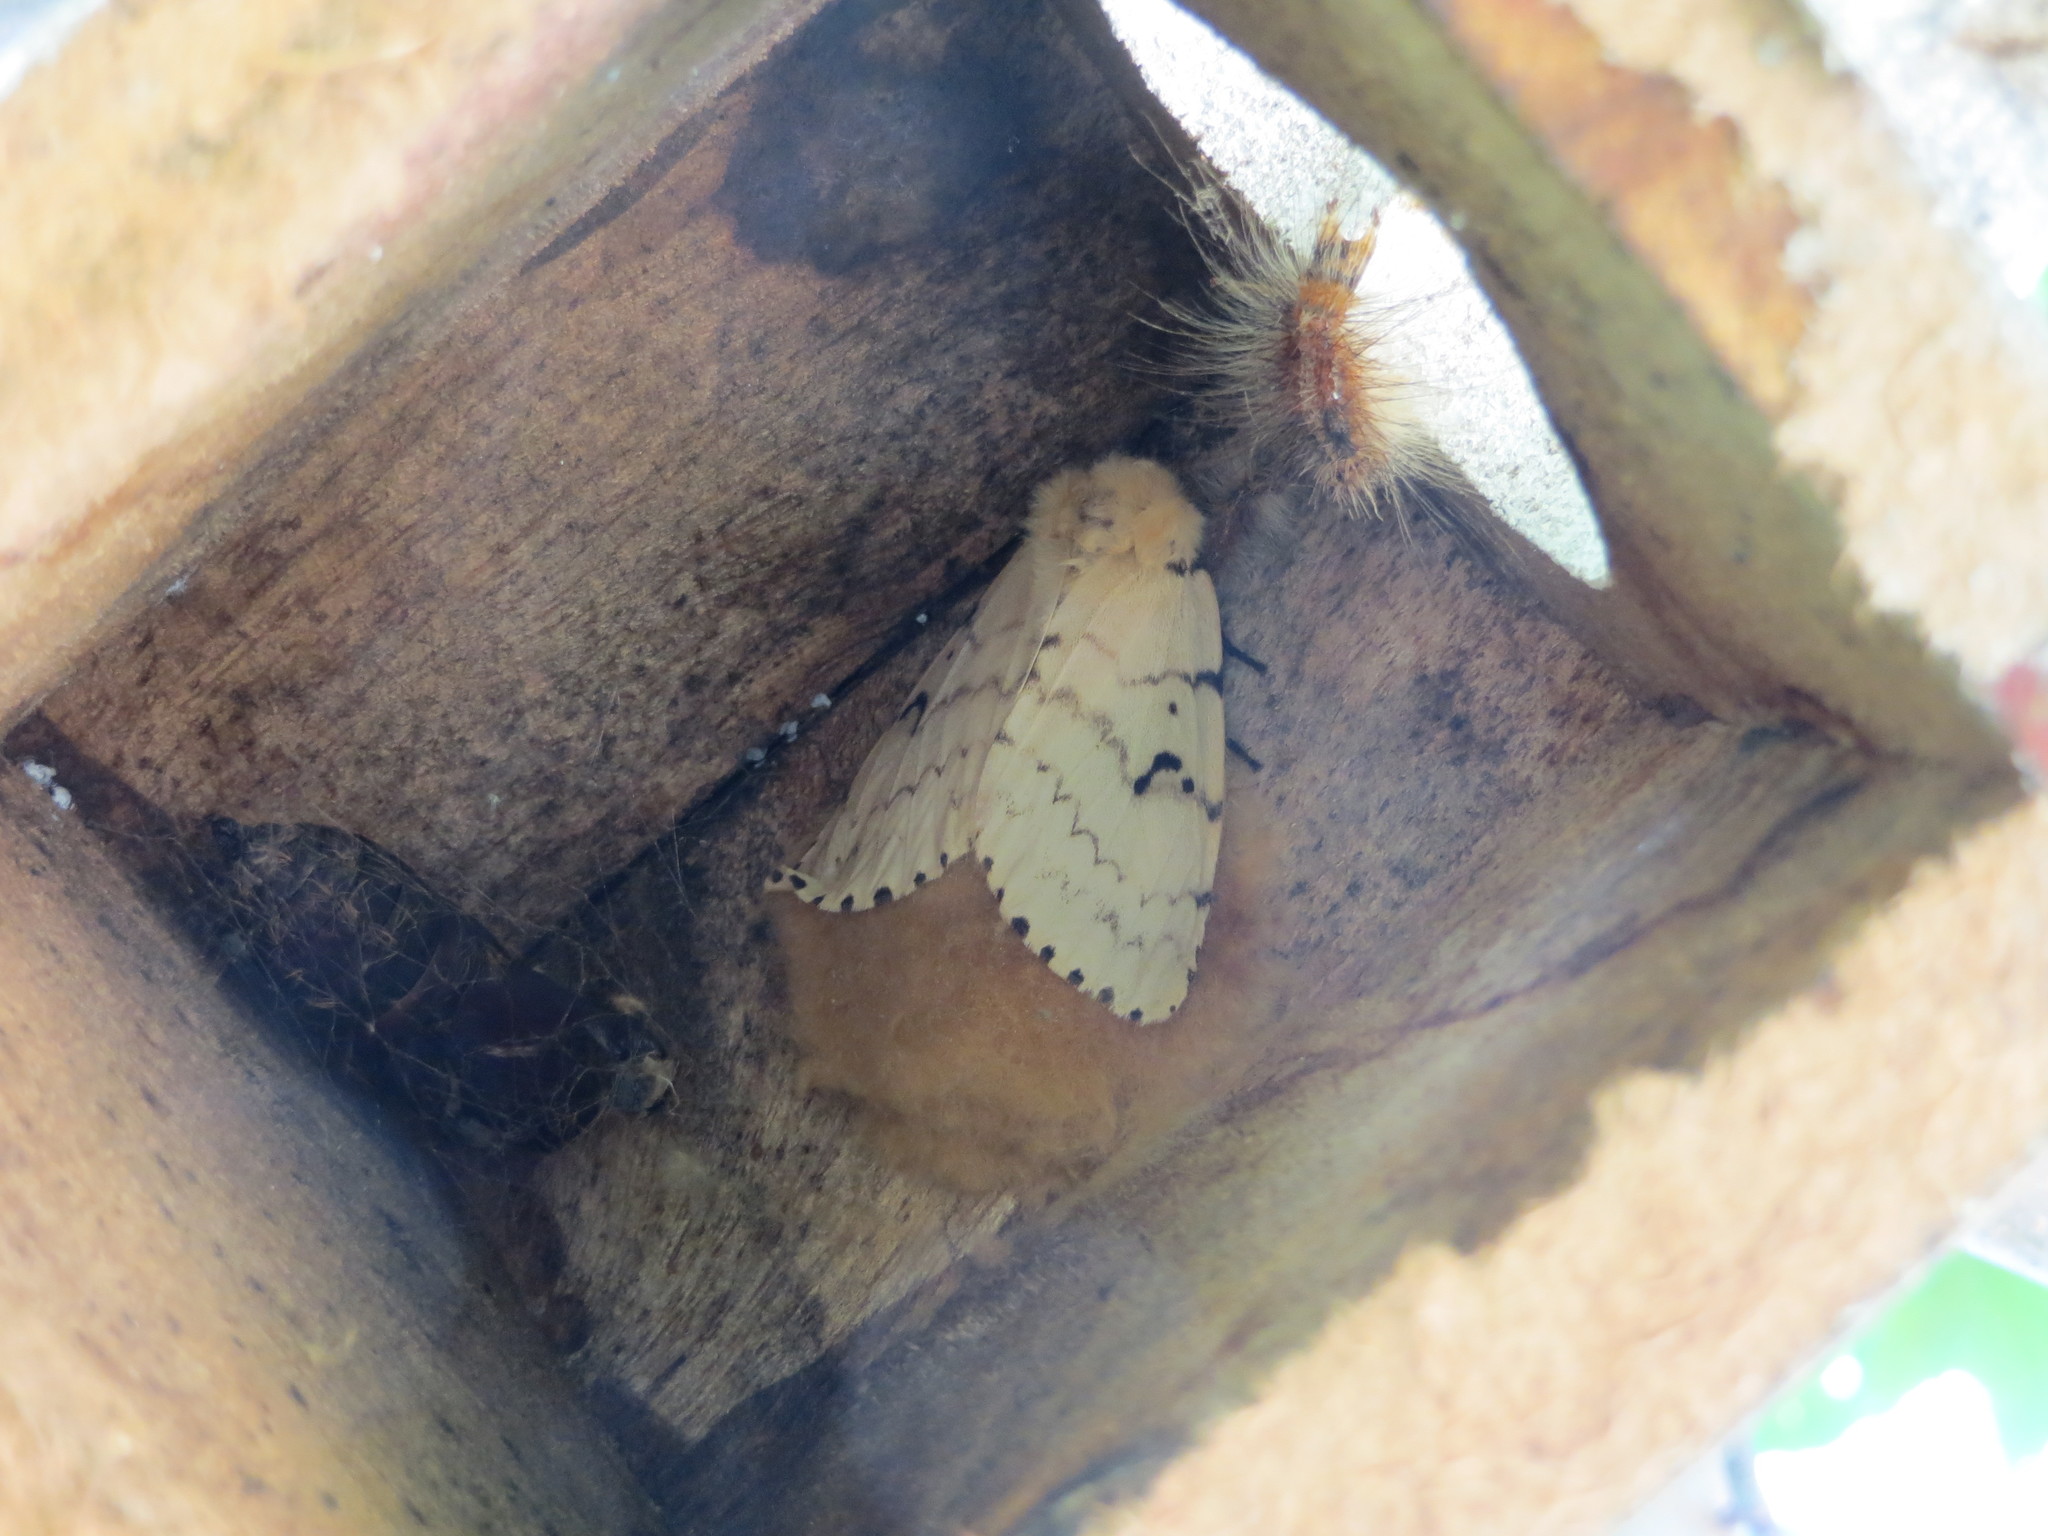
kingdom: Animalia
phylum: Arthropoda
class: Insecta
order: Lepidoptera
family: Erebidae
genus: Lymantria
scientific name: Lymantria dispar
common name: Gypsy moth
